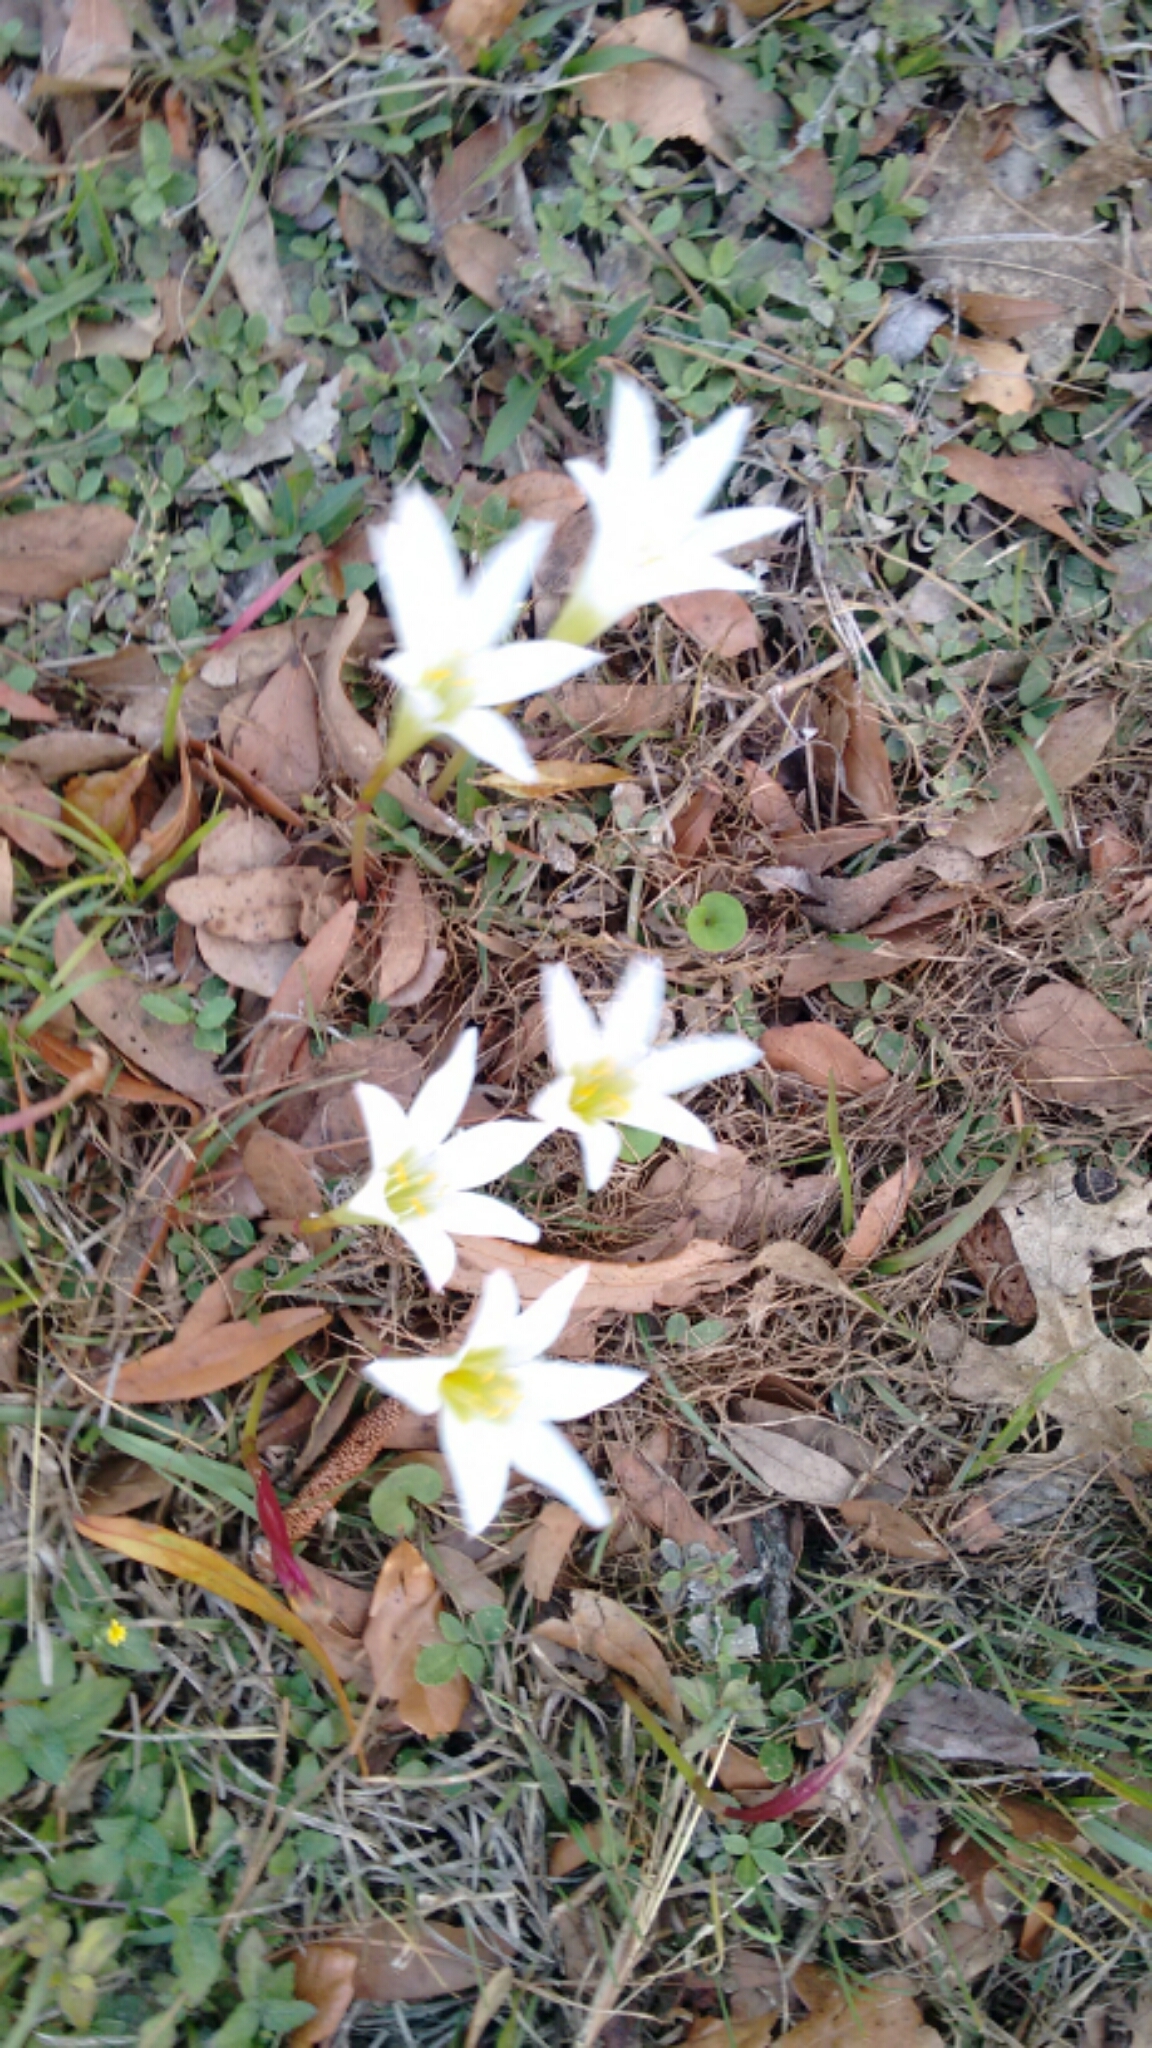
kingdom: Plantae
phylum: Tracheophyta
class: Liliopsida
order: Asparagales
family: Amaryllidaceae
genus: Zephyranthes
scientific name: Zephyranthes atamasco
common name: Atamasco lily
